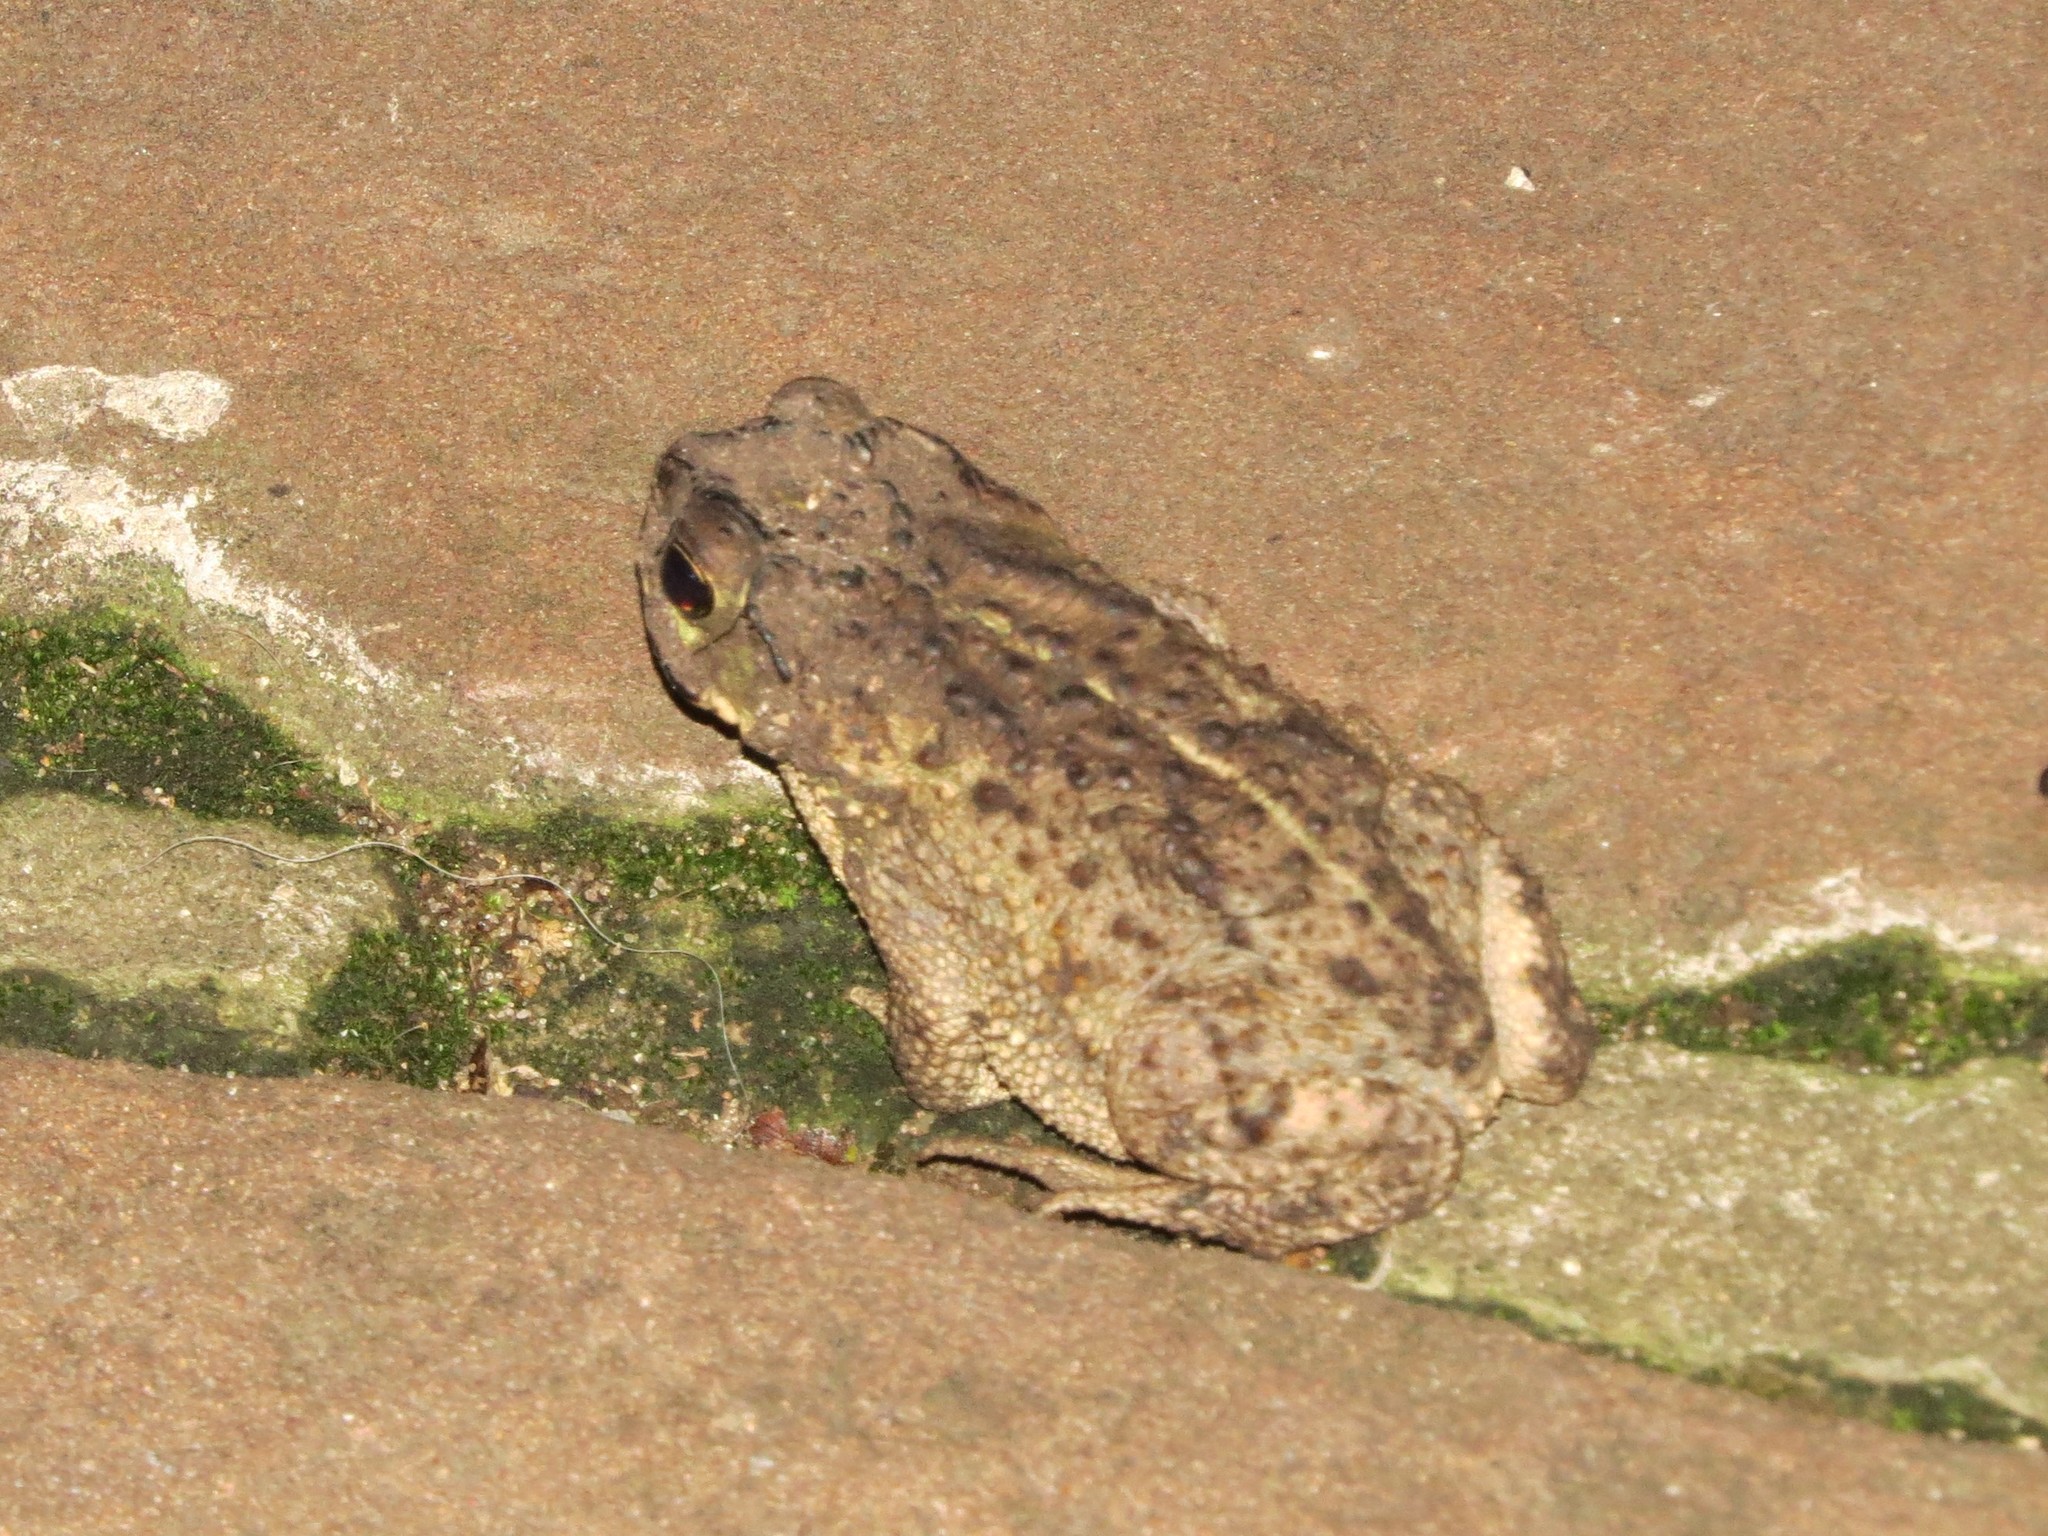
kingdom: Animalia
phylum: Chordata
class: Amphibia
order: Anura
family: Bufonidae
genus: Rhinella
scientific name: Rhinella dorbignyi
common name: D´orbigny’s toad
